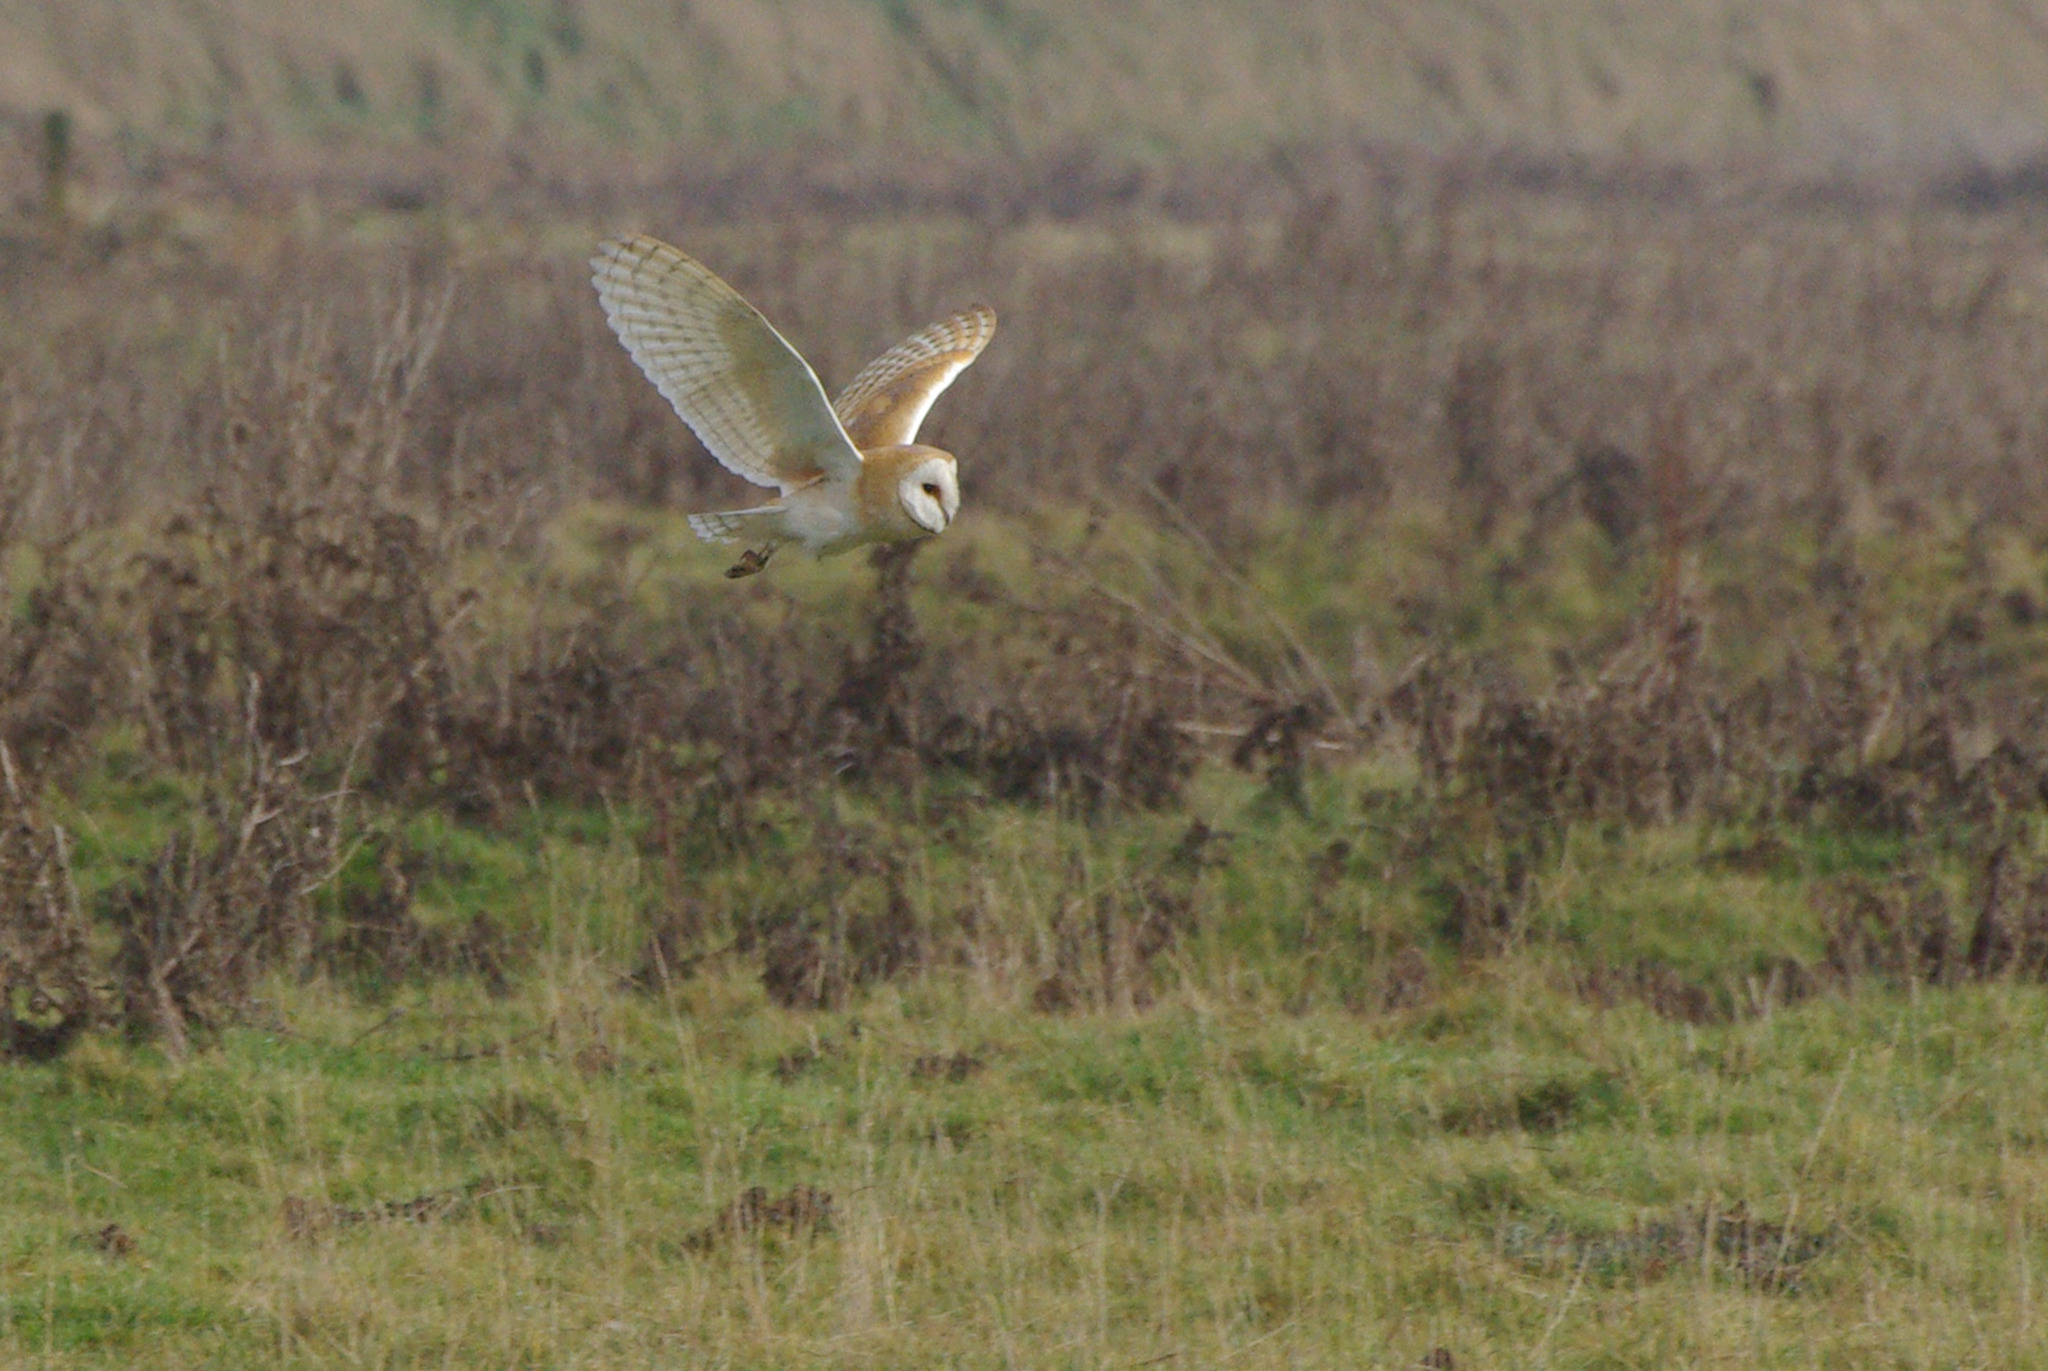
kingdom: Animalia
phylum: Chordata
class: Aves
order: Strigiformes
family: Tytonidae
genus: Tyto
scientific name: Tyto alba
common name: Barn owl
